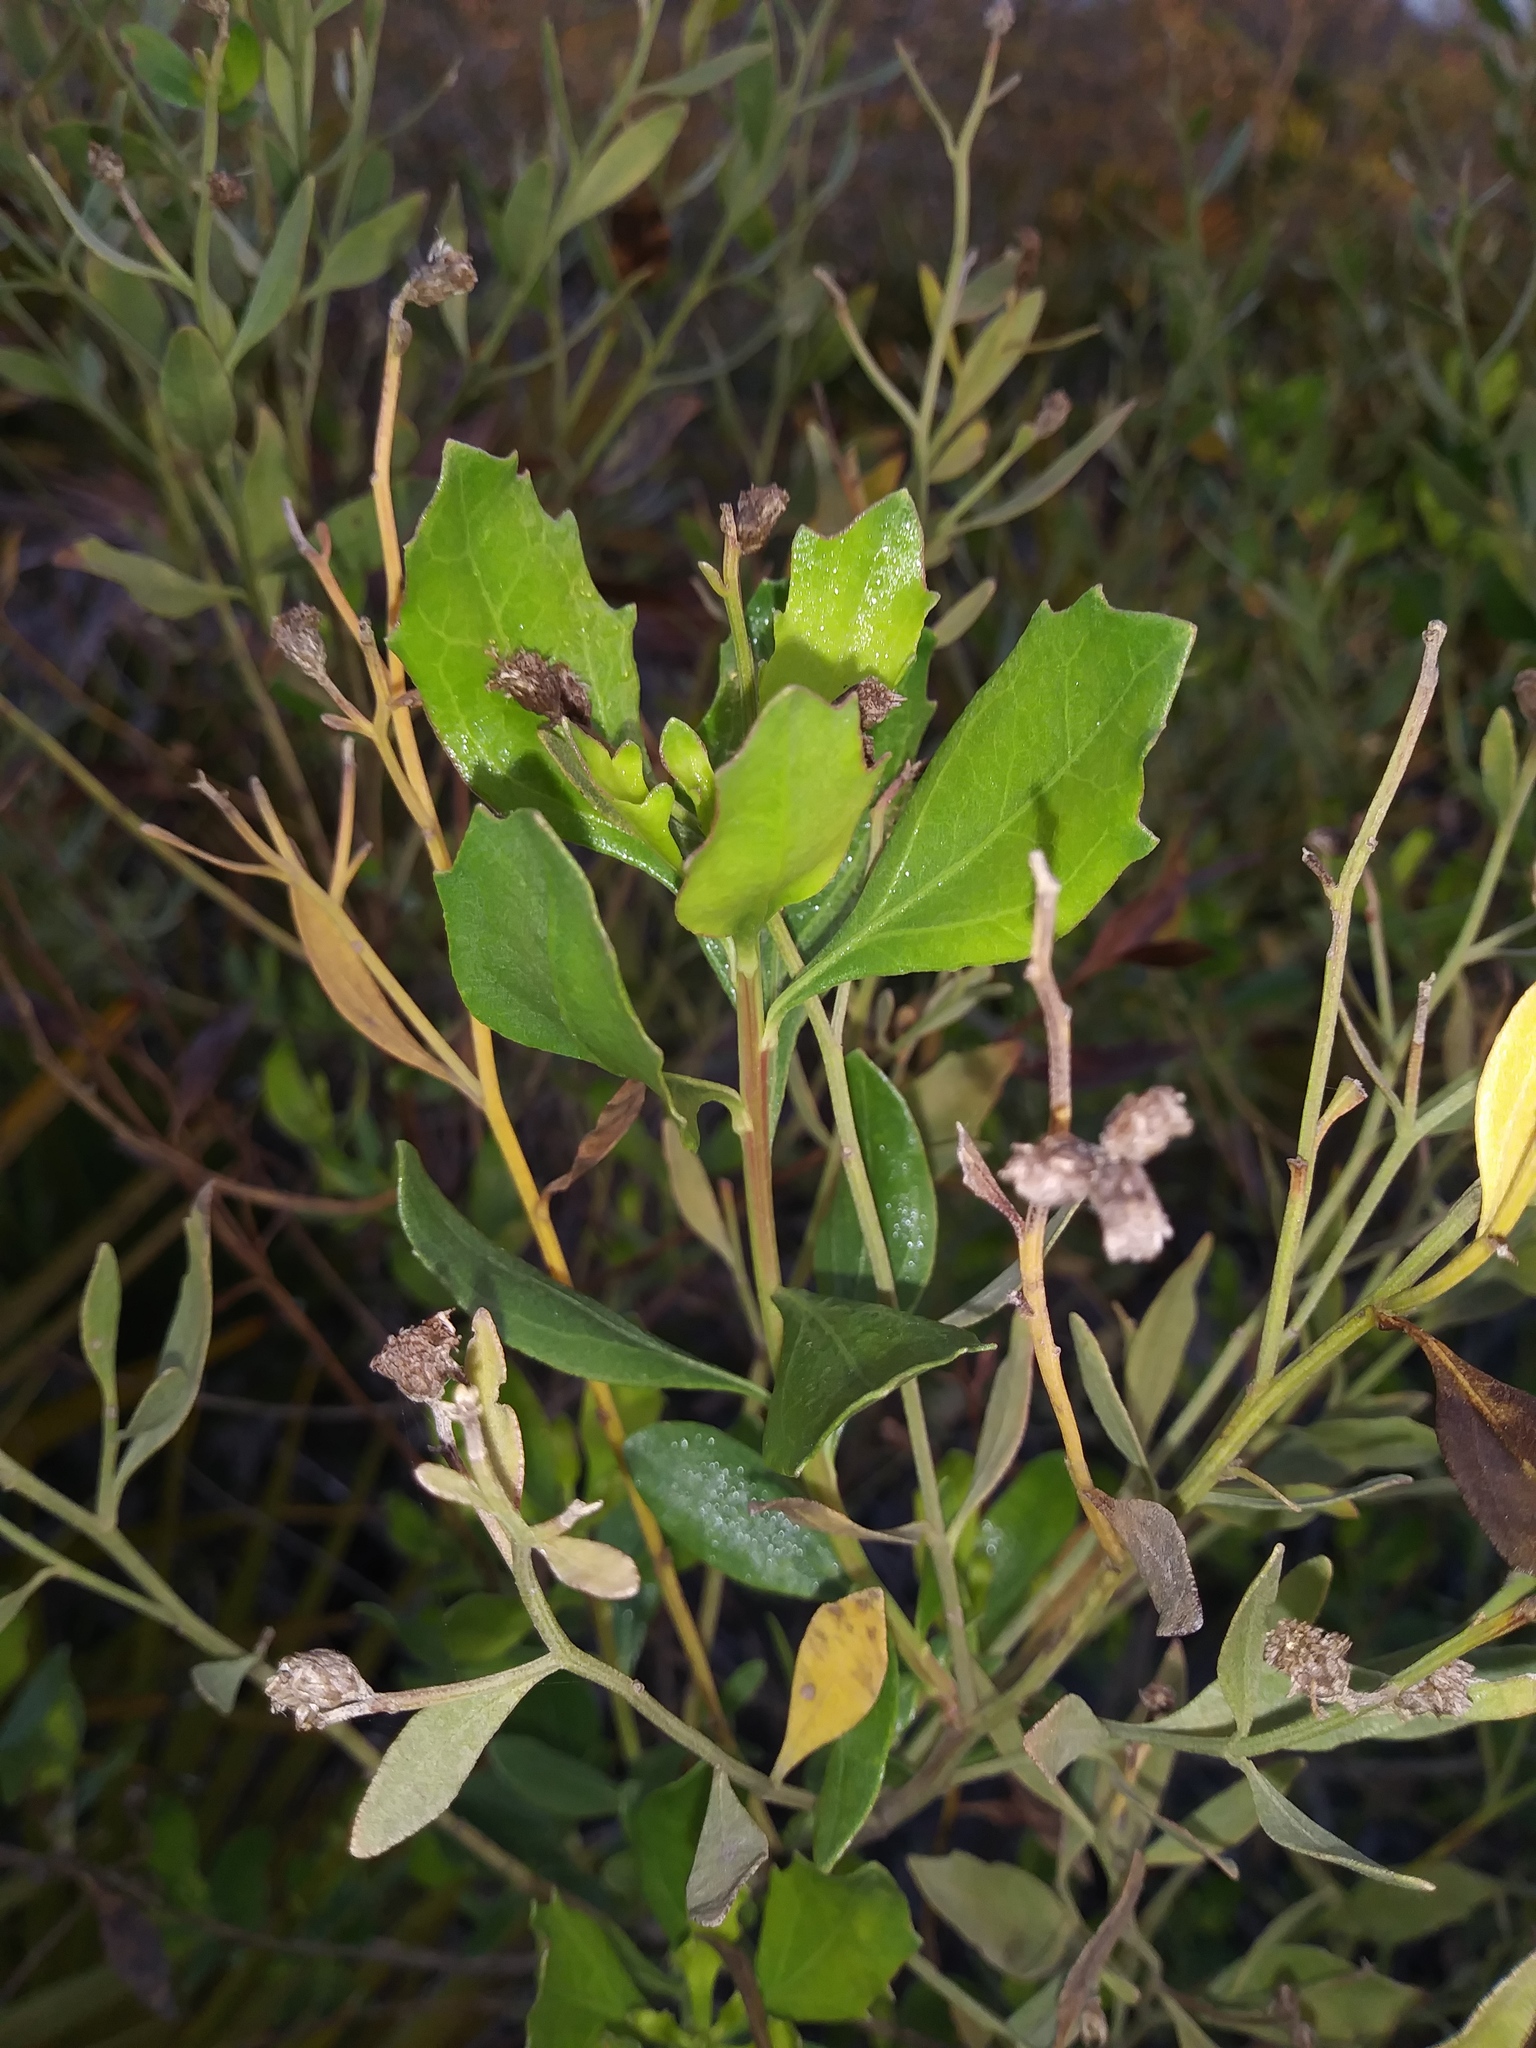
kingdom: Plantae
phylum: Tracheophyta
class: Magnoliopsida
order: Asterales
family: Asteraceae
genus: Baccharis
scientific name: Baccharis halimifolia
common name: Eastern baccharis
